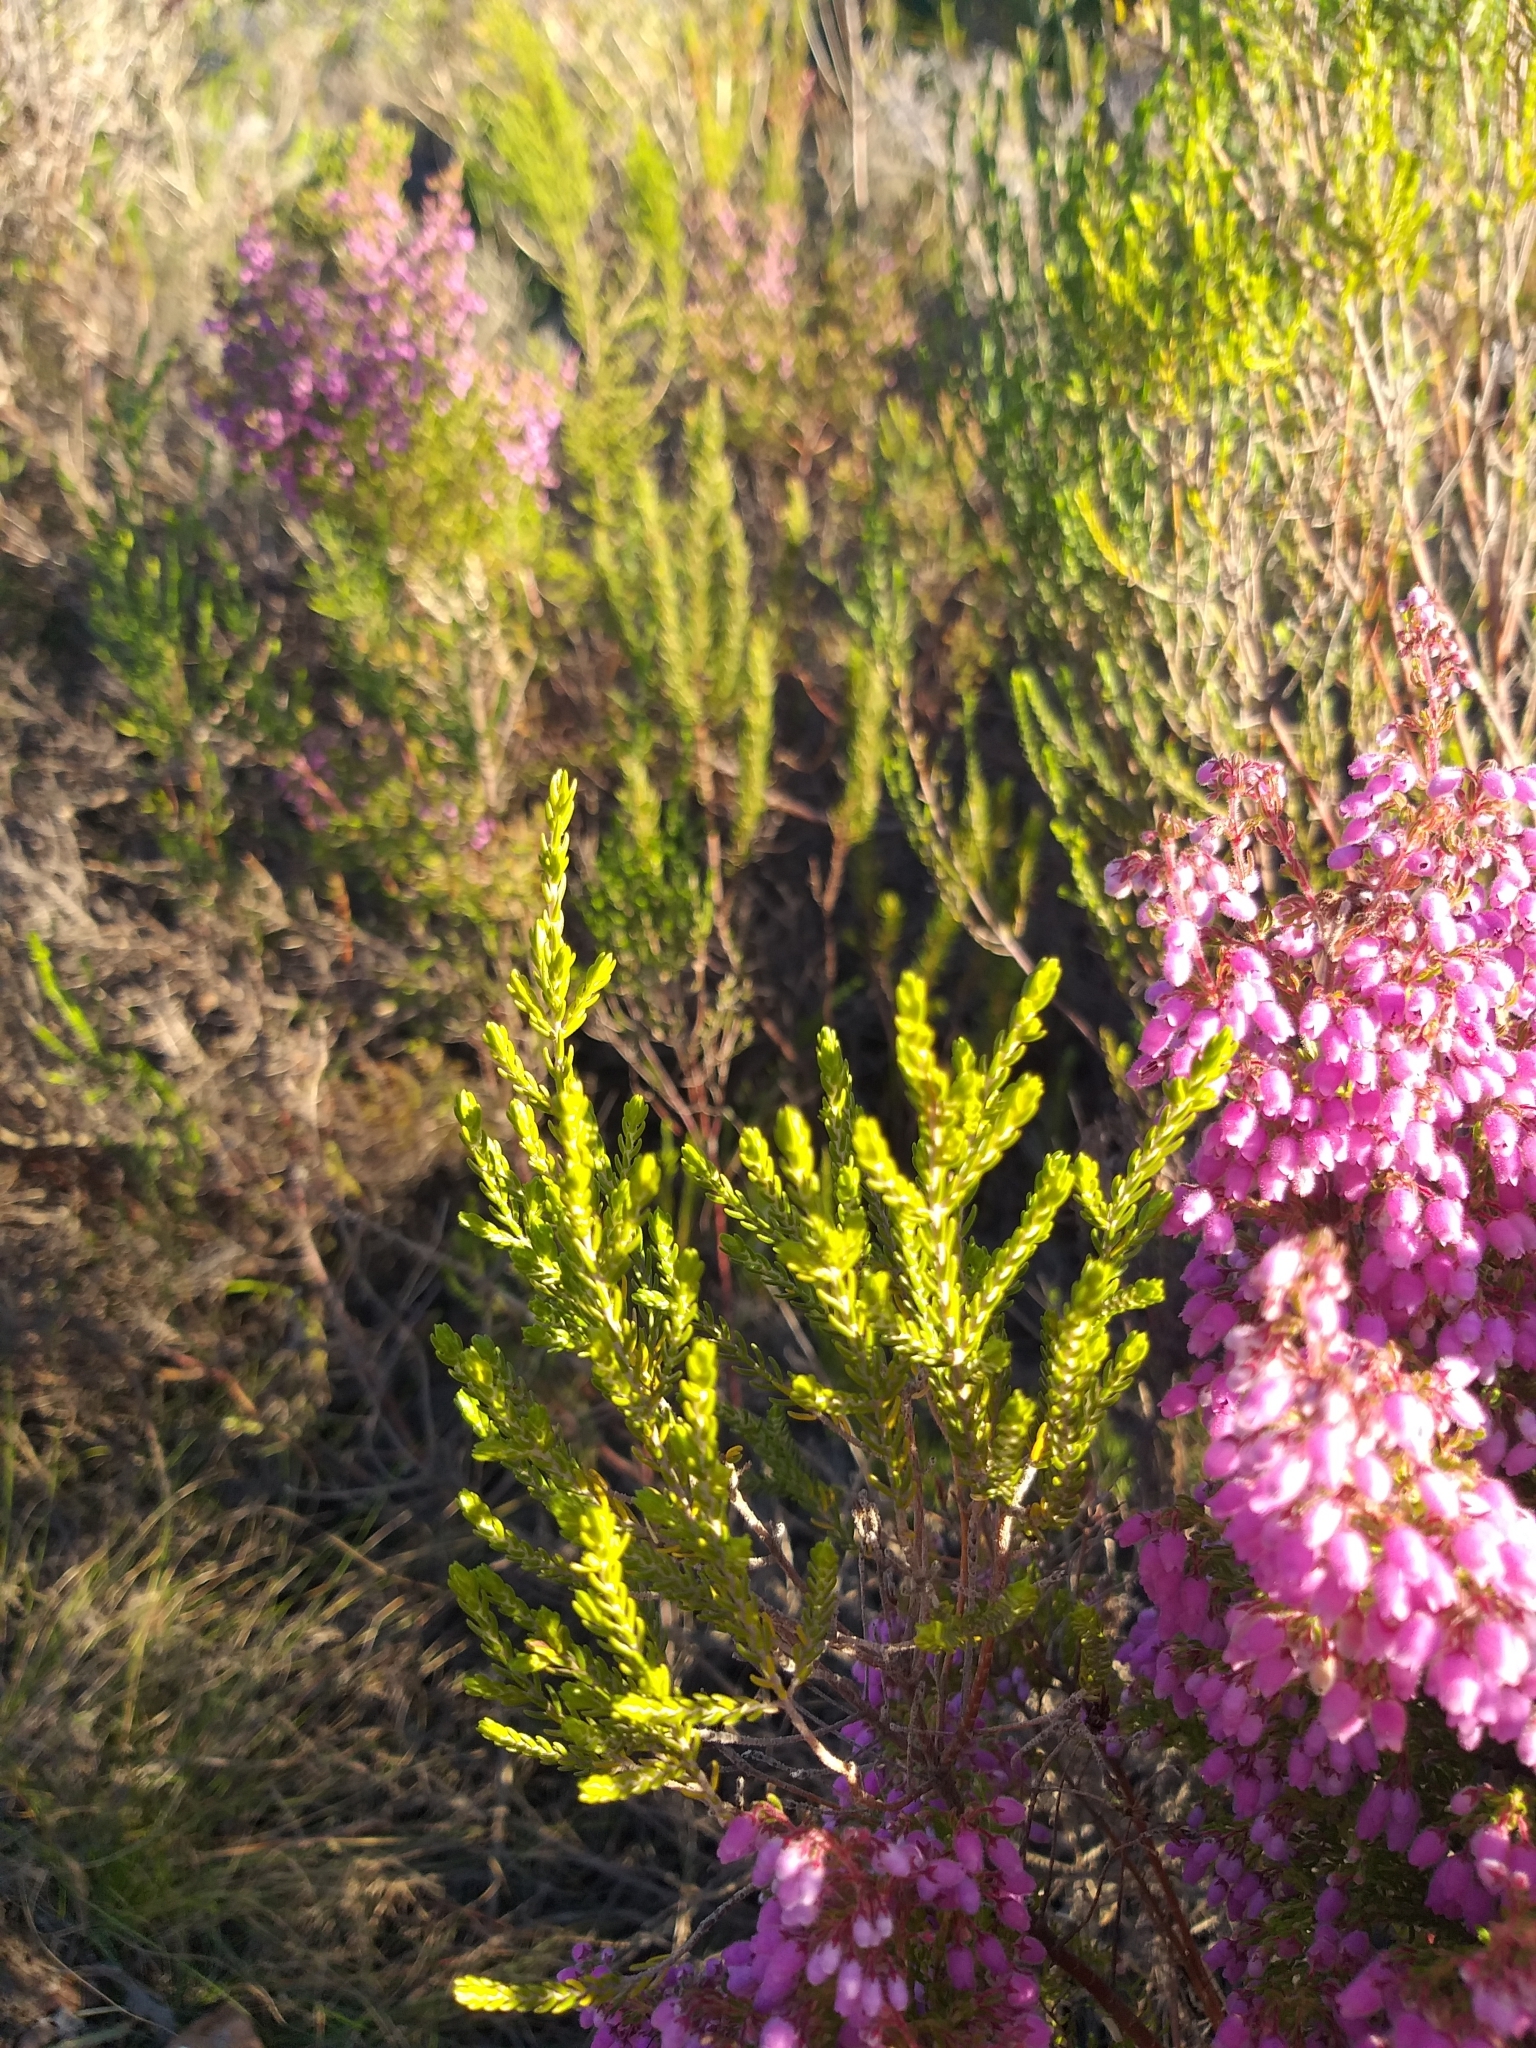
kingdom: Plantae
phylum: Tracheophyta
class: Magnoliopsida
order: Ericales
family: Ericaceae
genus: Erica
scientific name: Erica hirtiflora
